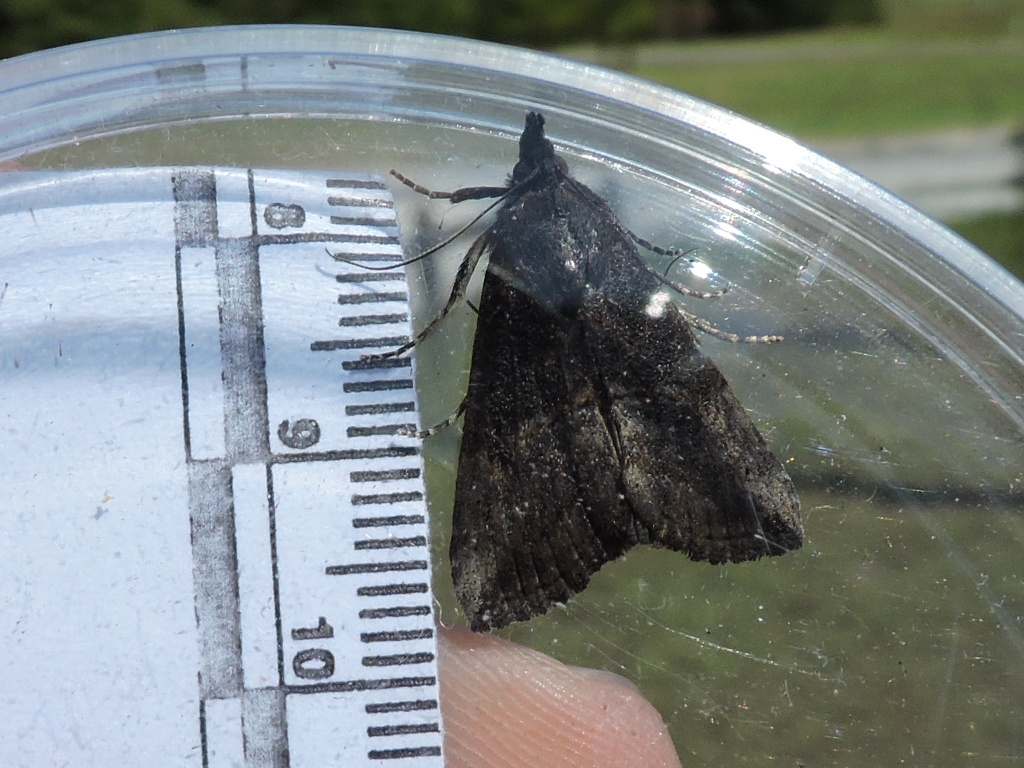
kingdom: Animalia
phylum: Arthropoda
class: Insecta
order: Lepidoptera
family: Erebidae
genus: Hypena
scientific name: Hypena scabra
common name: Green cloverworm
